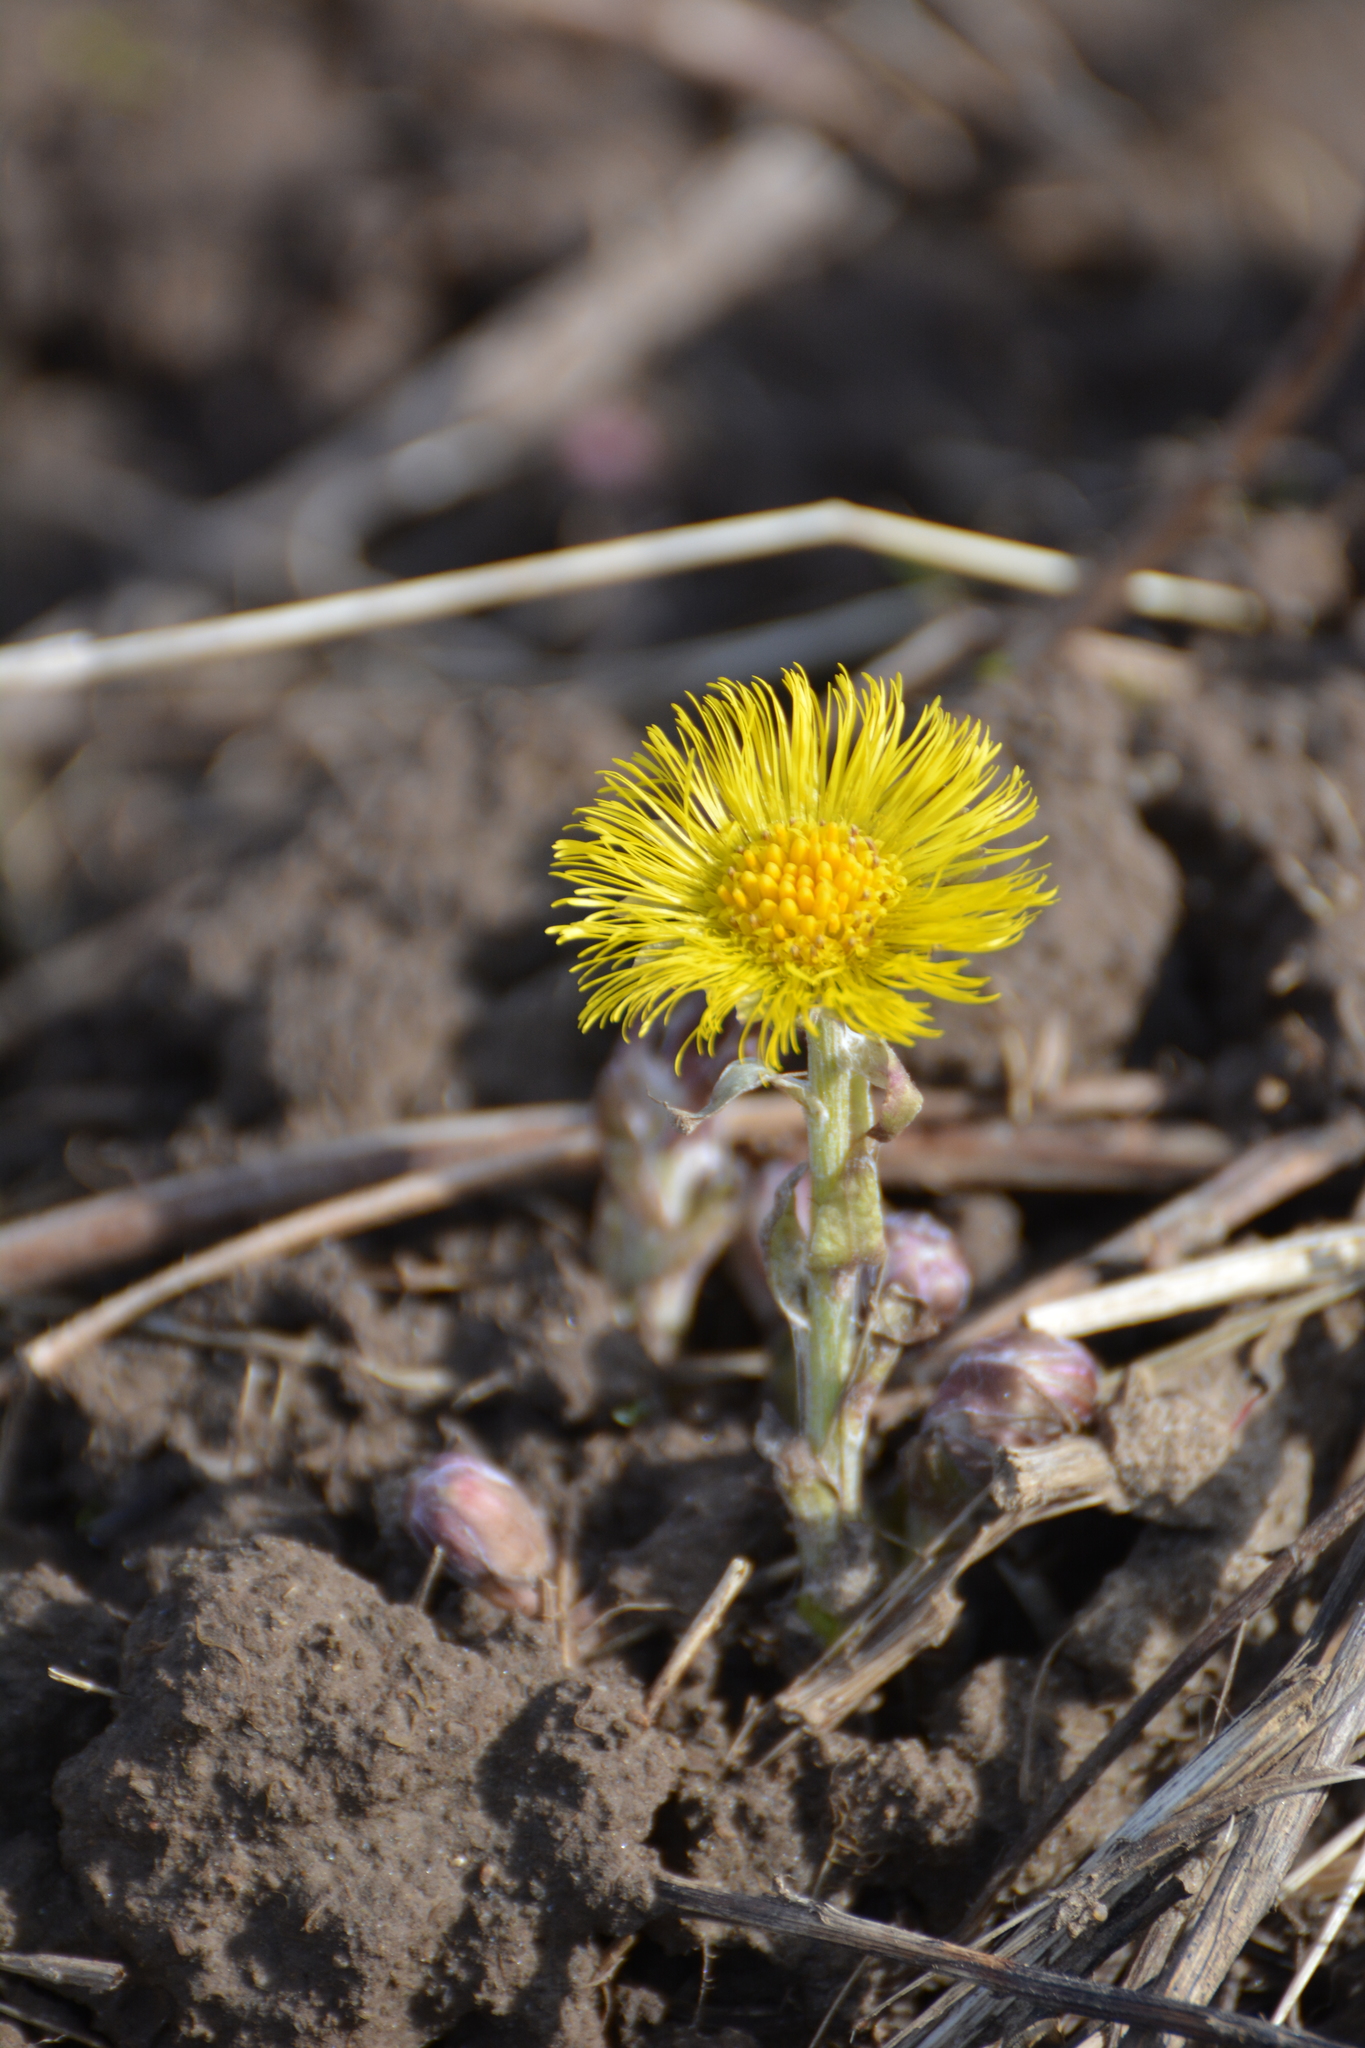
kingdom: Plantae
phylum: Tracheophyta
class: Magnoliopsida
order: Asterales
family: Asteraceae
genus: Tussilago
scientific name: Tussilago farfara
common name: Coltsfoot
